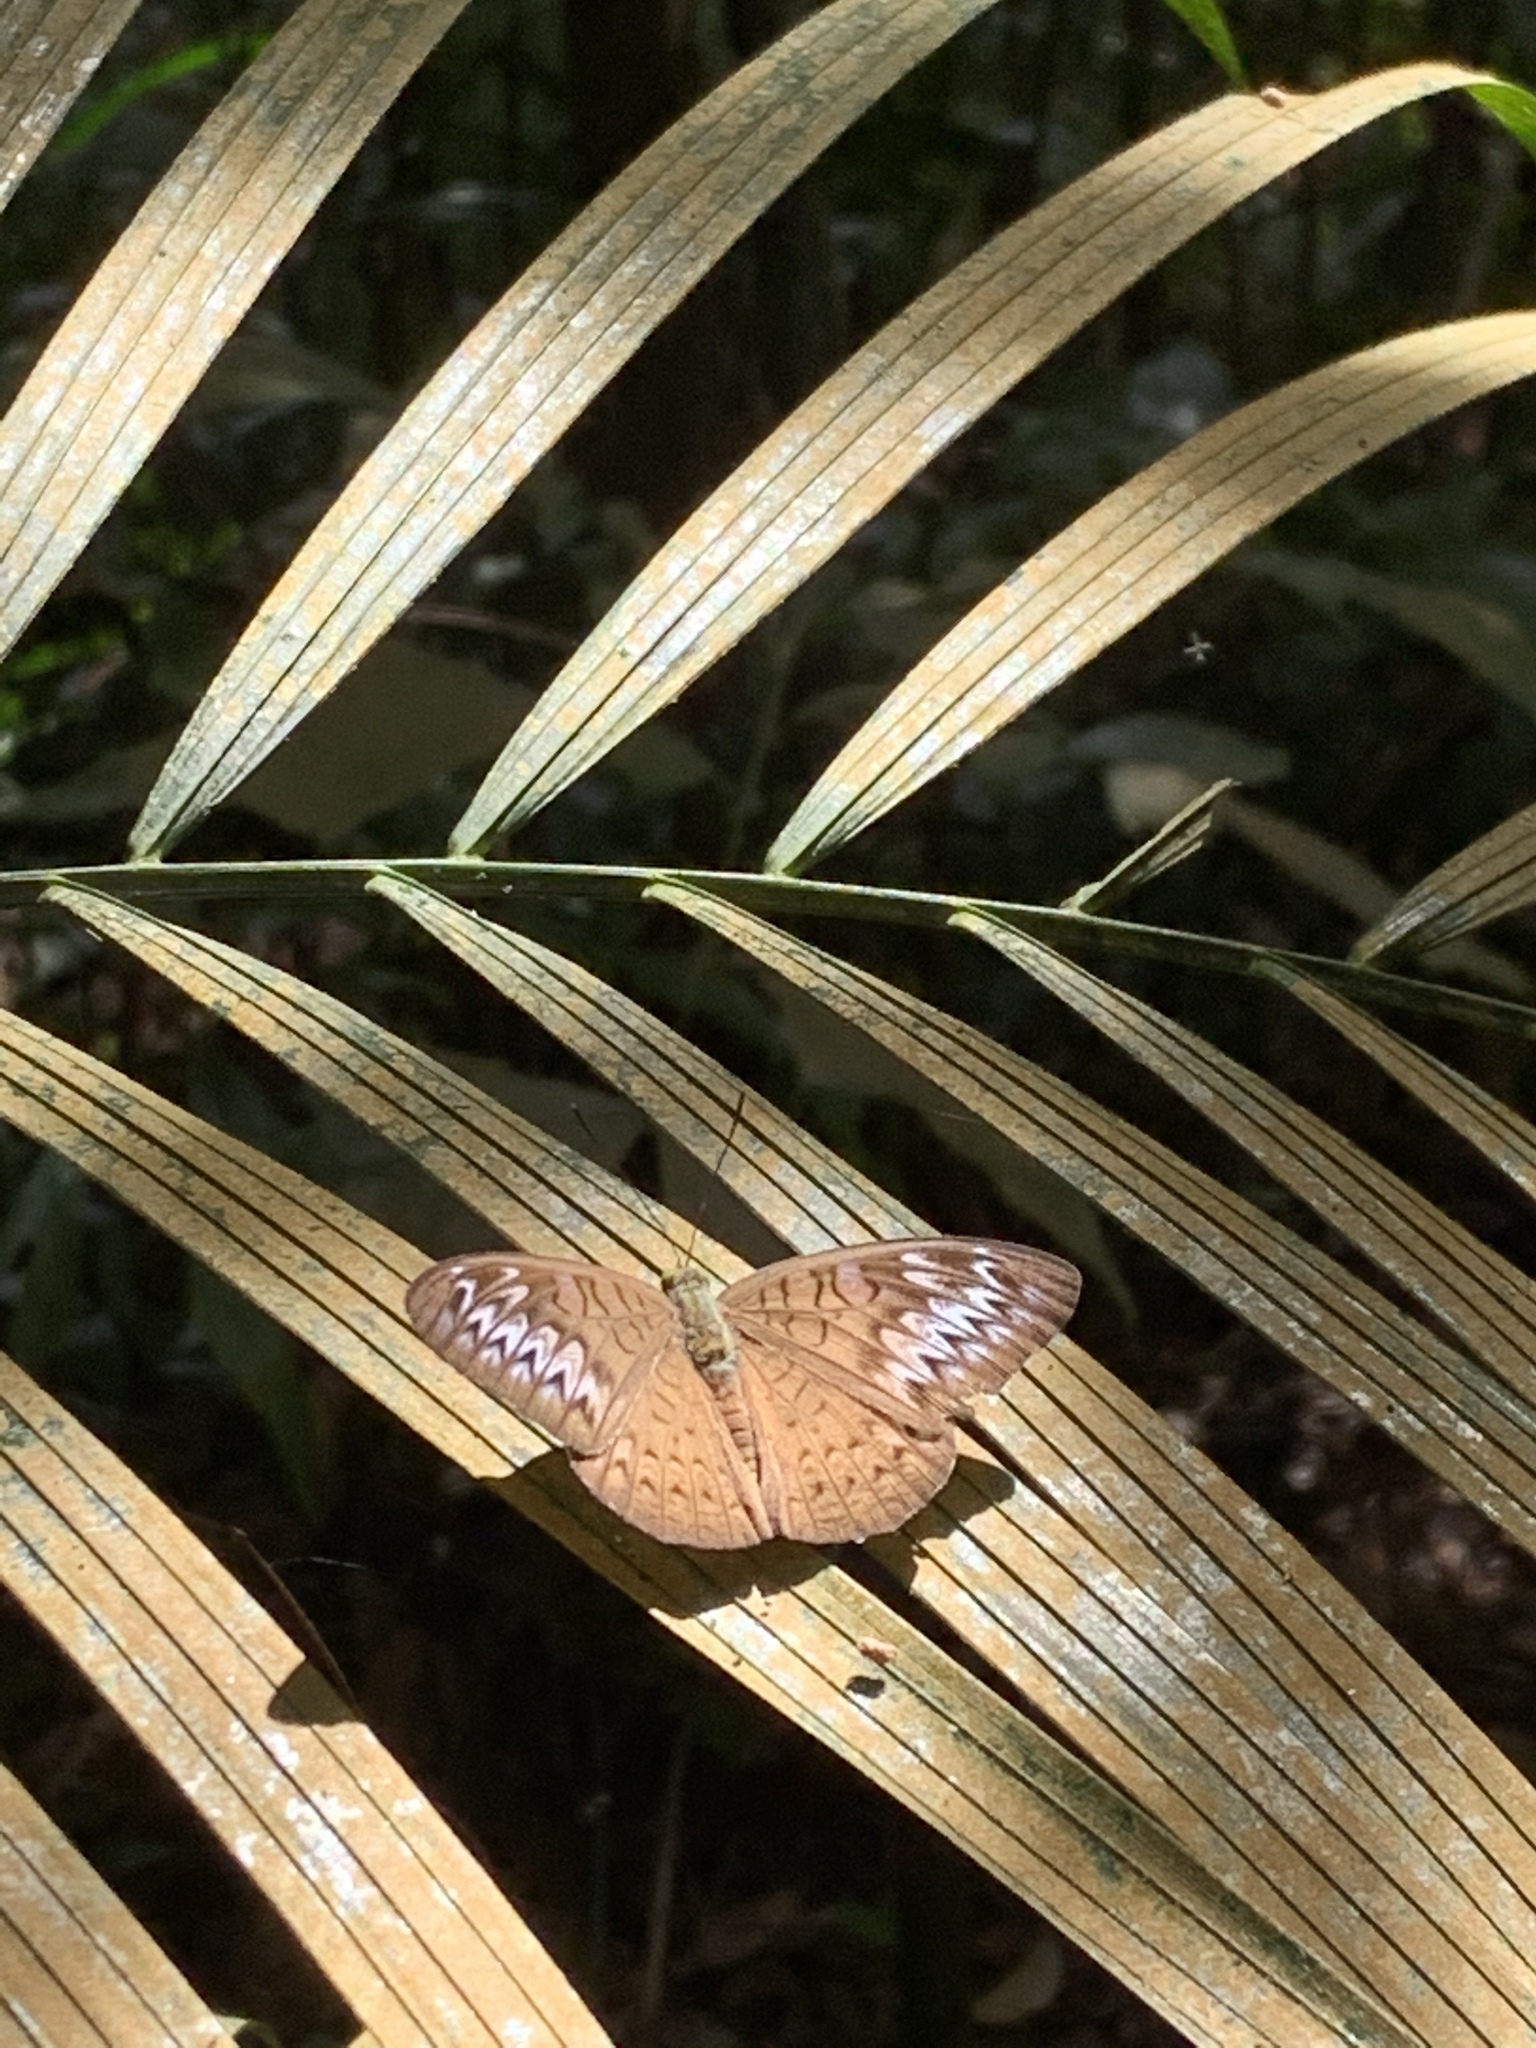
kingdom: Animalia
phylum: Arthropoda
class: Insecta
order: Lepidoptera
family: Nymphalidae
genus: Tanaecia
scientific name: Tanaecia pelea
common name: Malay viscount
